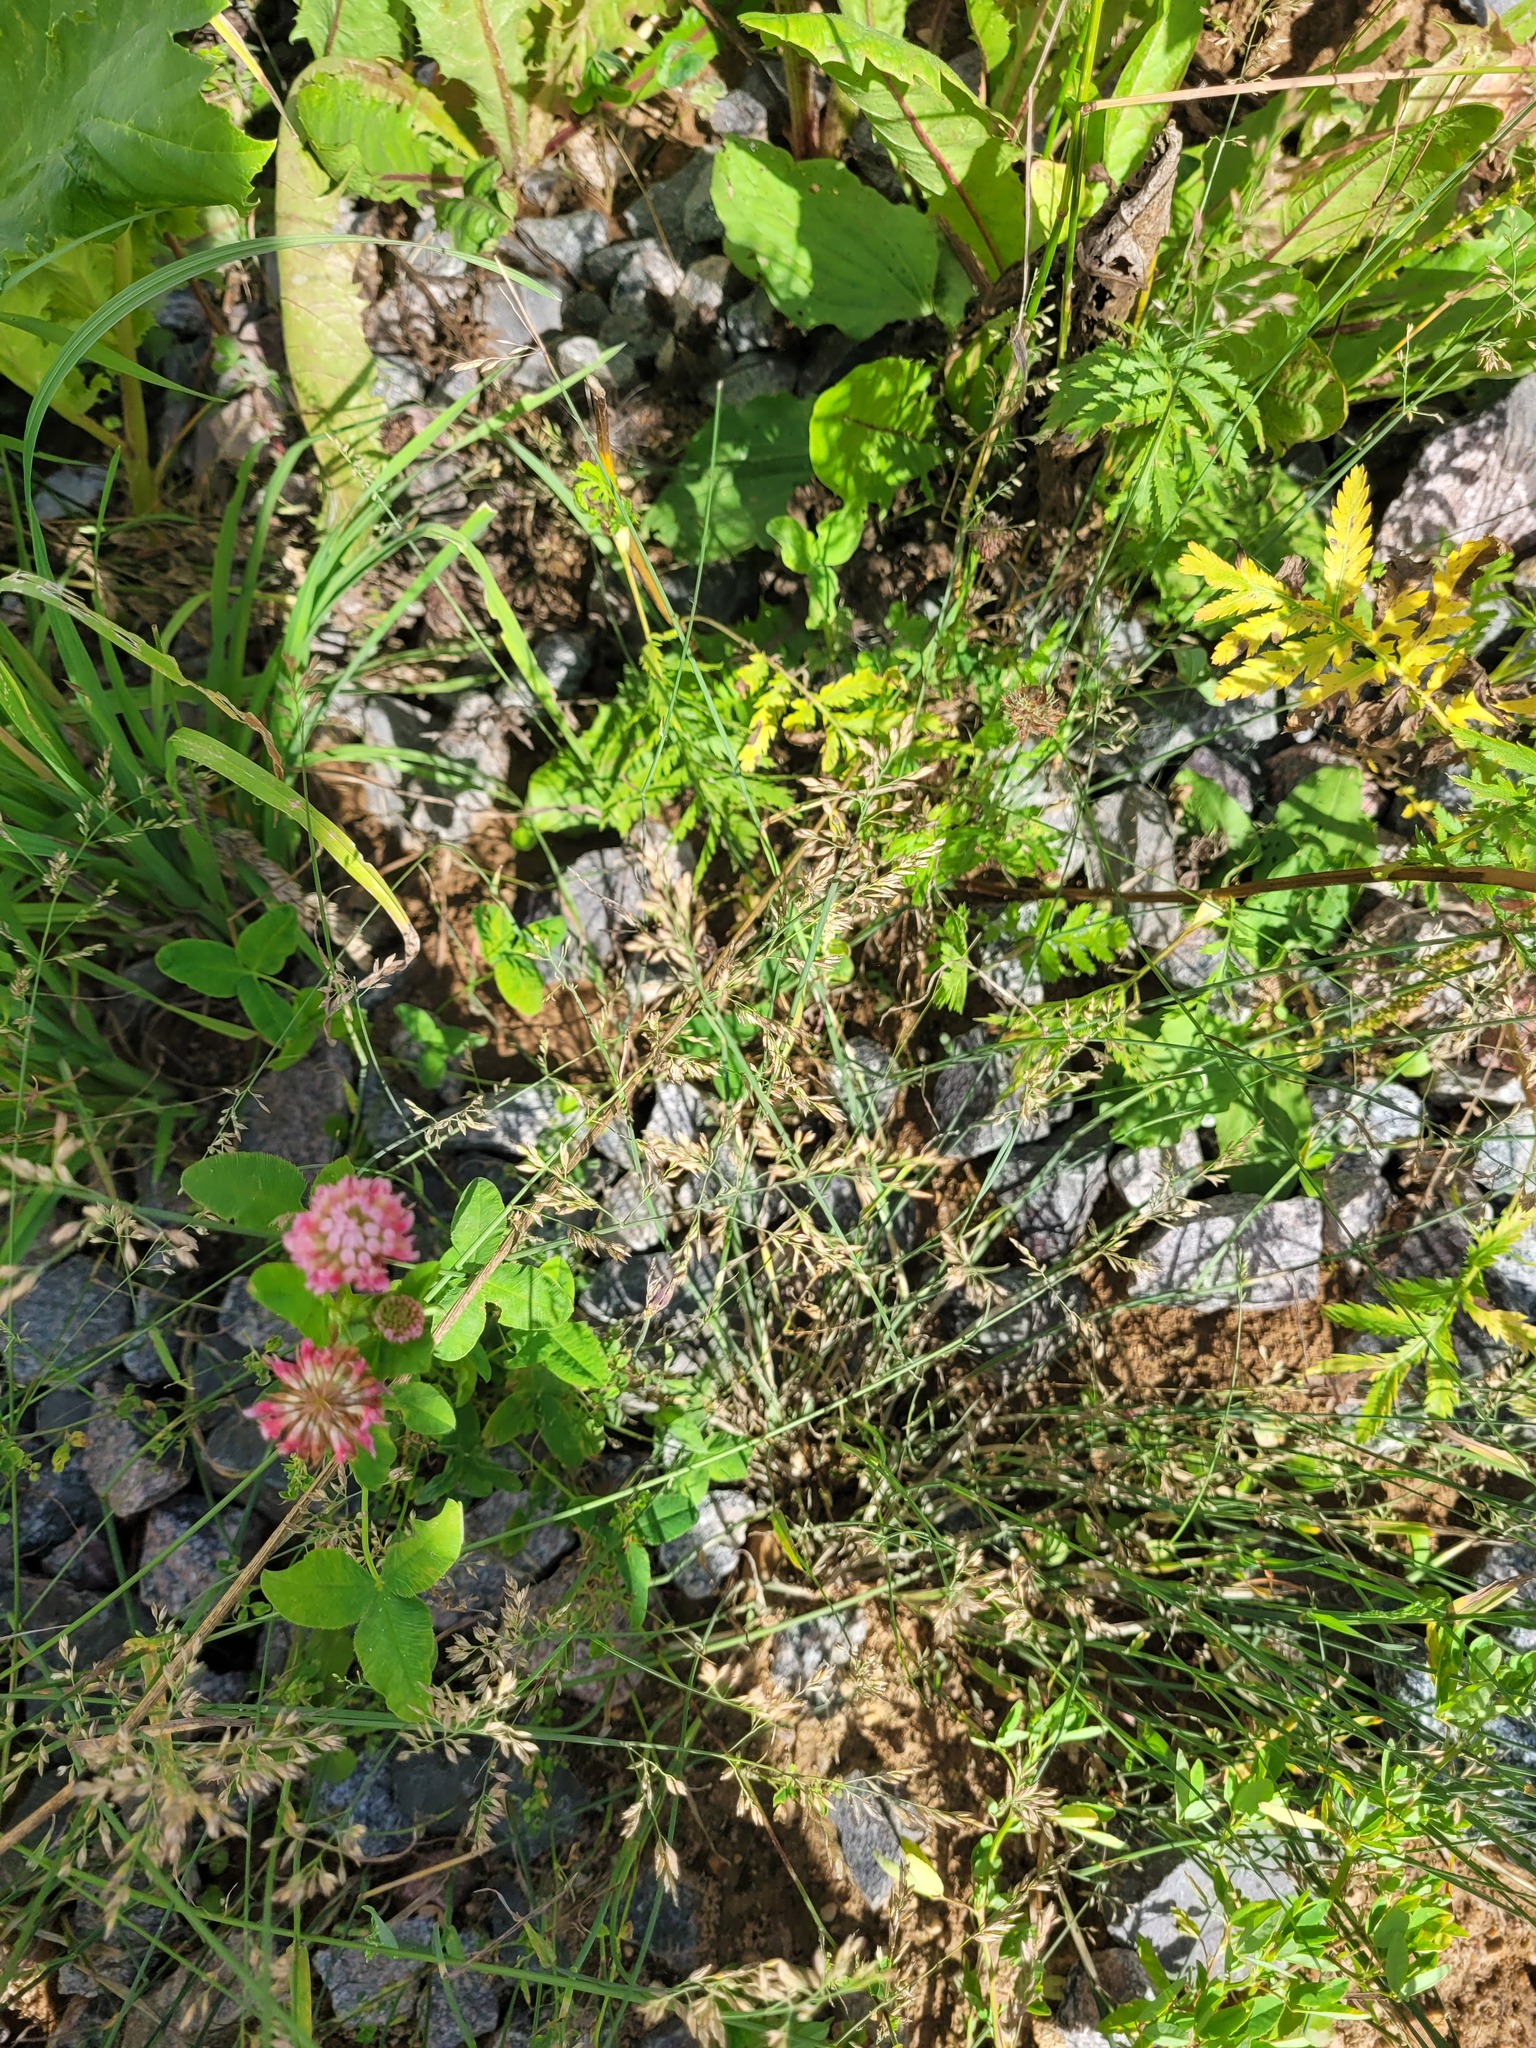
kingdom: Plantae
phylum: Tracheophyta
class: Liliopsida
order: Poales
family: Poaceae
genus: Poa
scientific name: Poa compressa
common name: Canada bluegrass
